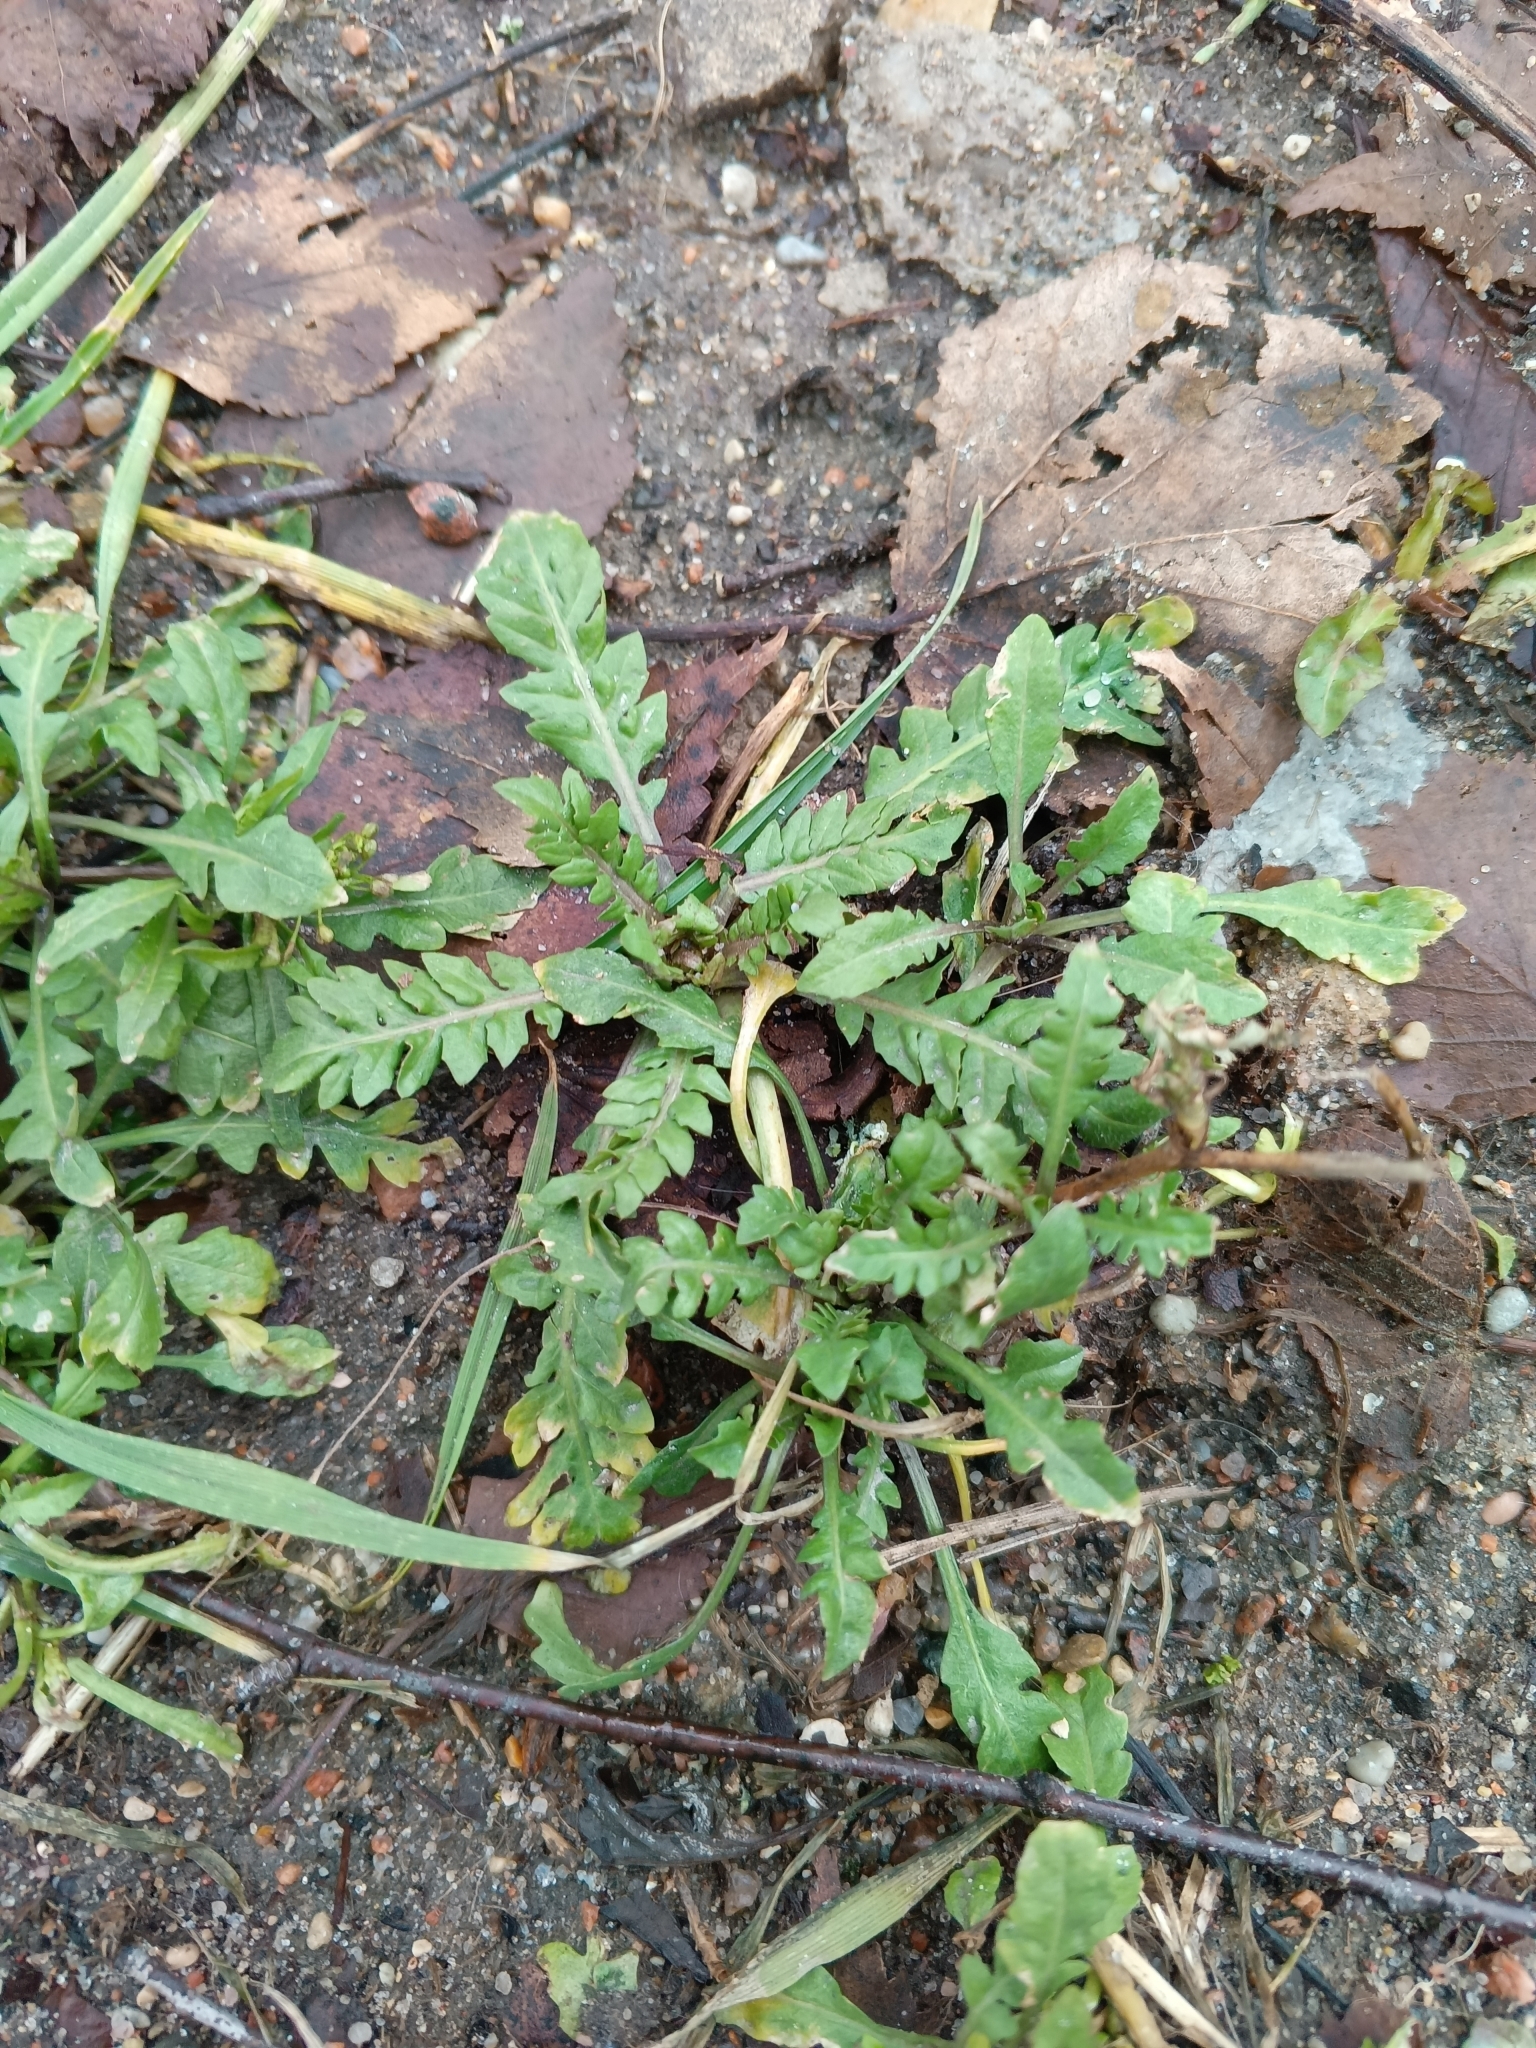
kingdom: Plantae
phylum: Tracheophyta
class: Magnoliopsida
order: Brassicales
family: Brassicaceae
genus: Capsella
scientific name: Capsella bursa-pastoris
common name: Shepherd's purse
